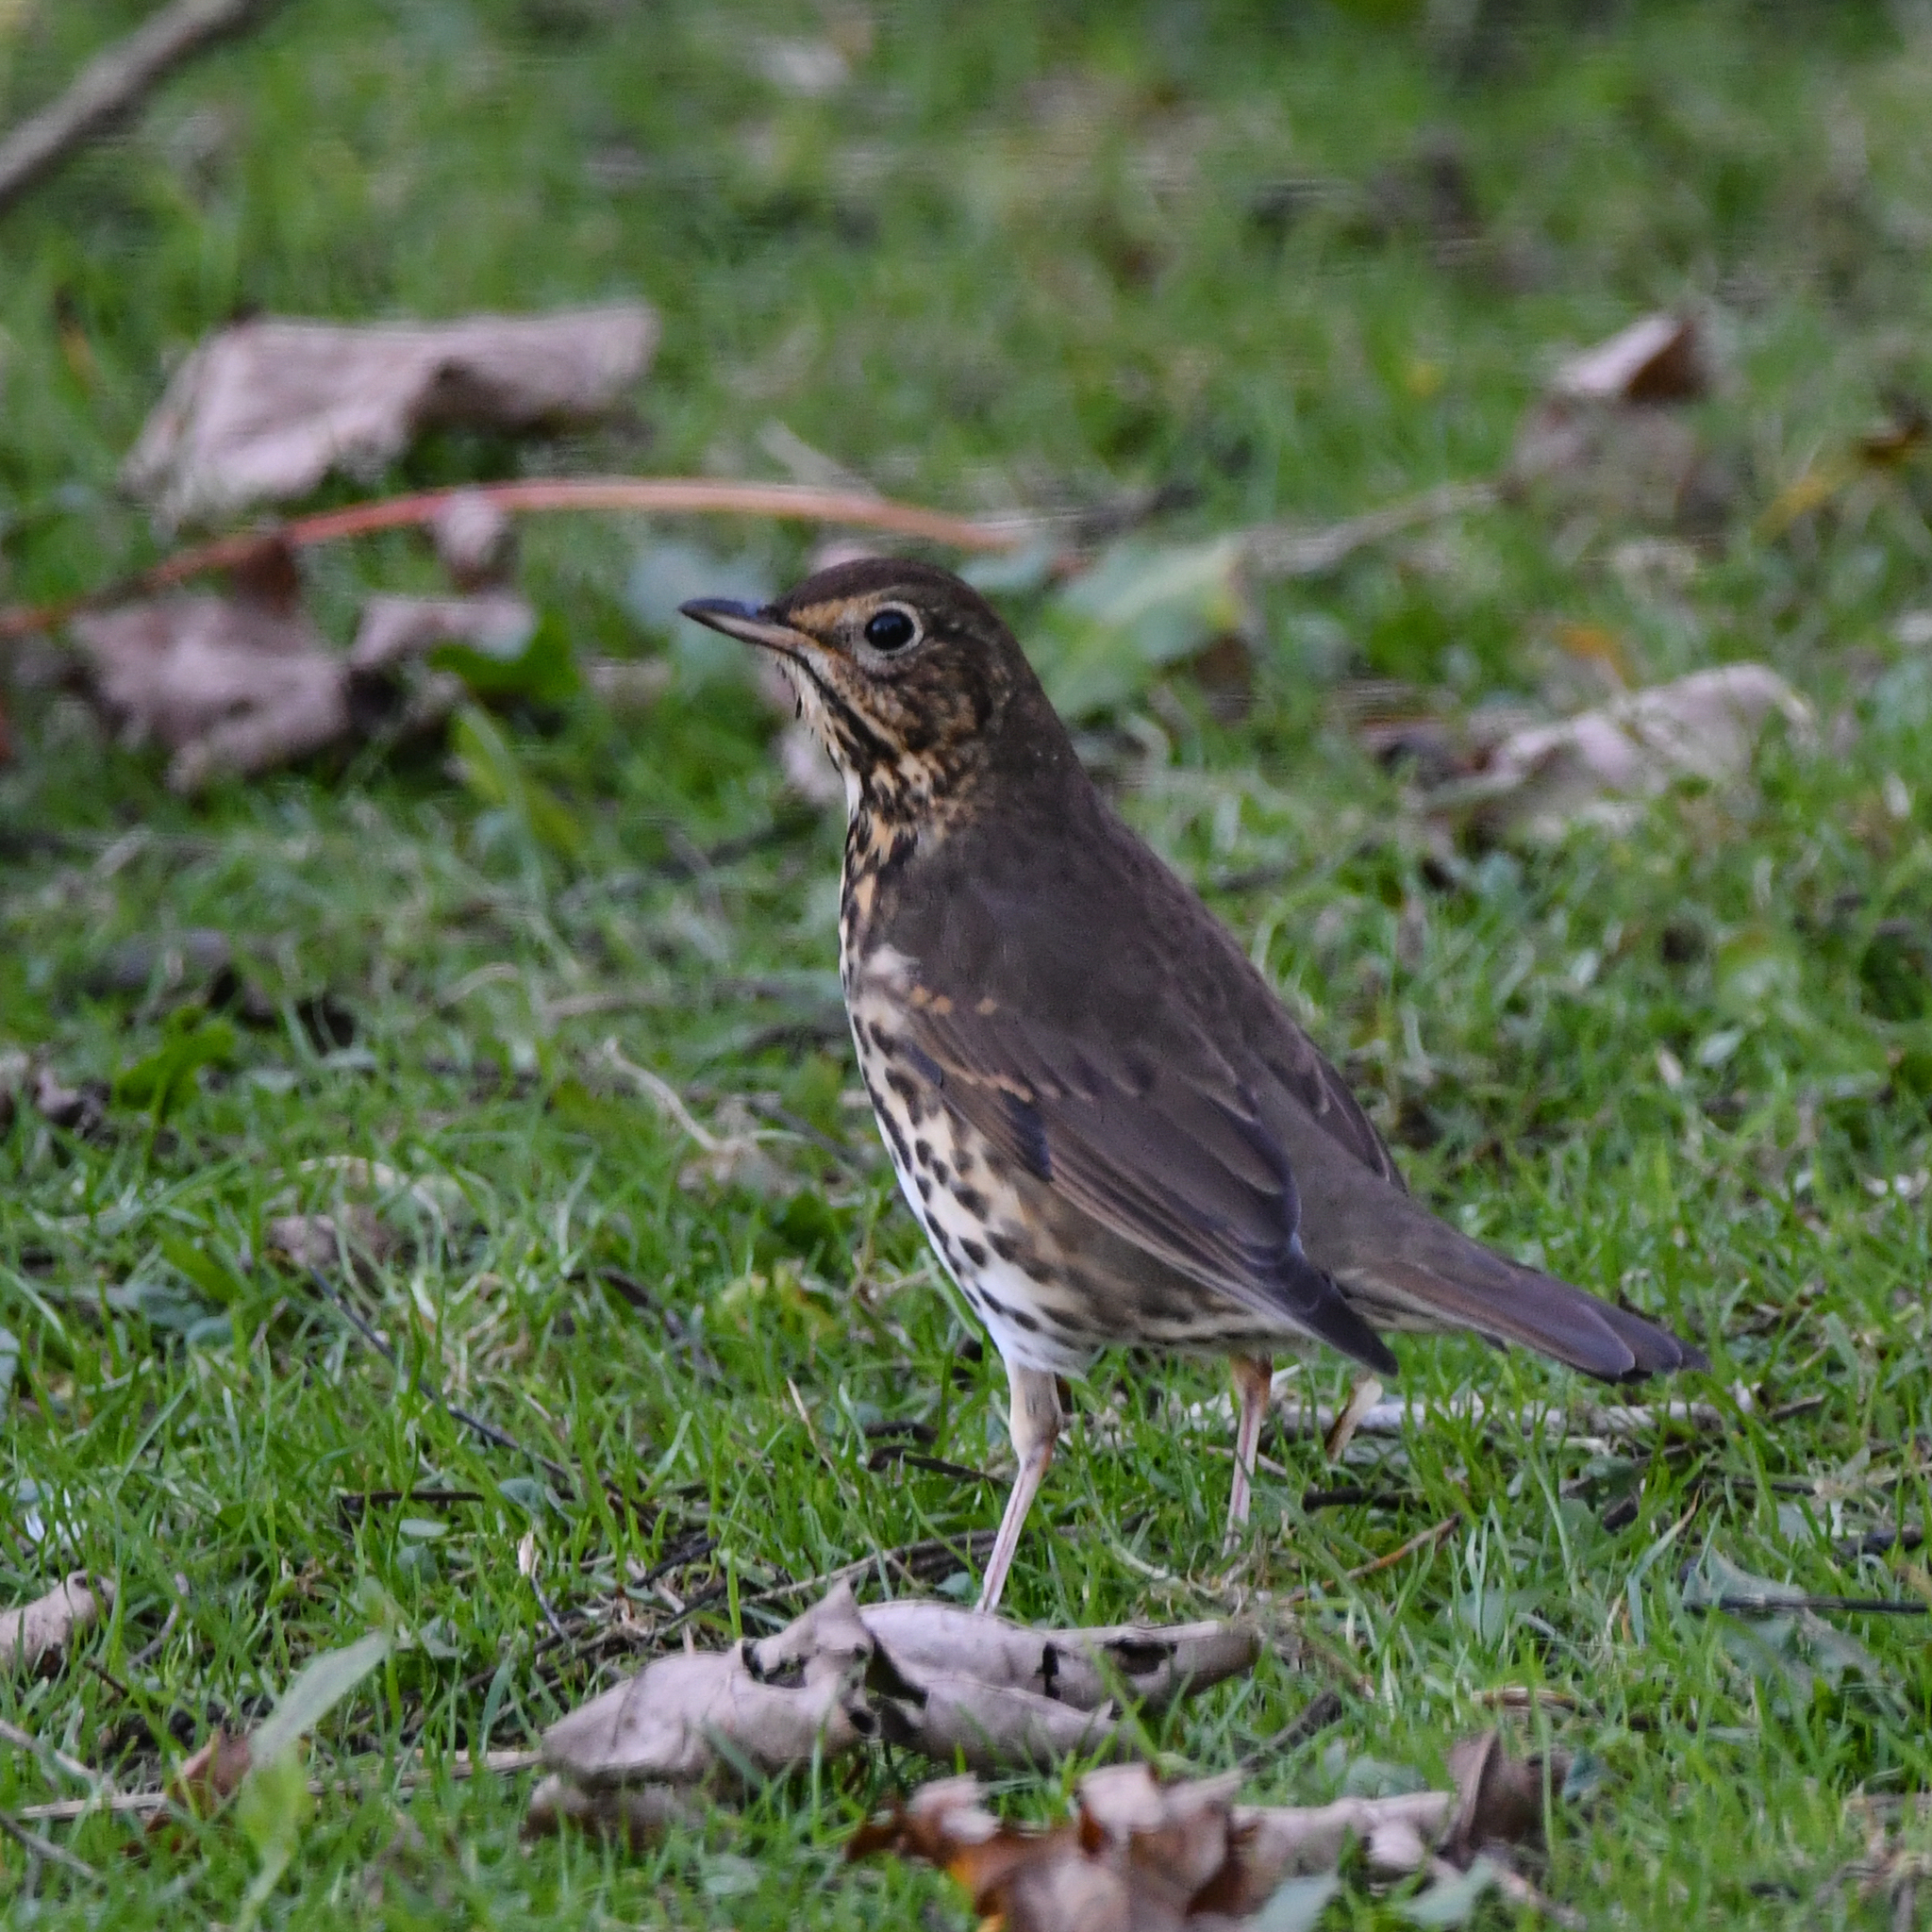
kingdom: Animalia
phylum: Chordata
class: Aves
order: Passeriformes
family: Turdidae
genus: Turdus
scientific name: Turdus philomelos
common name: Song thrush
